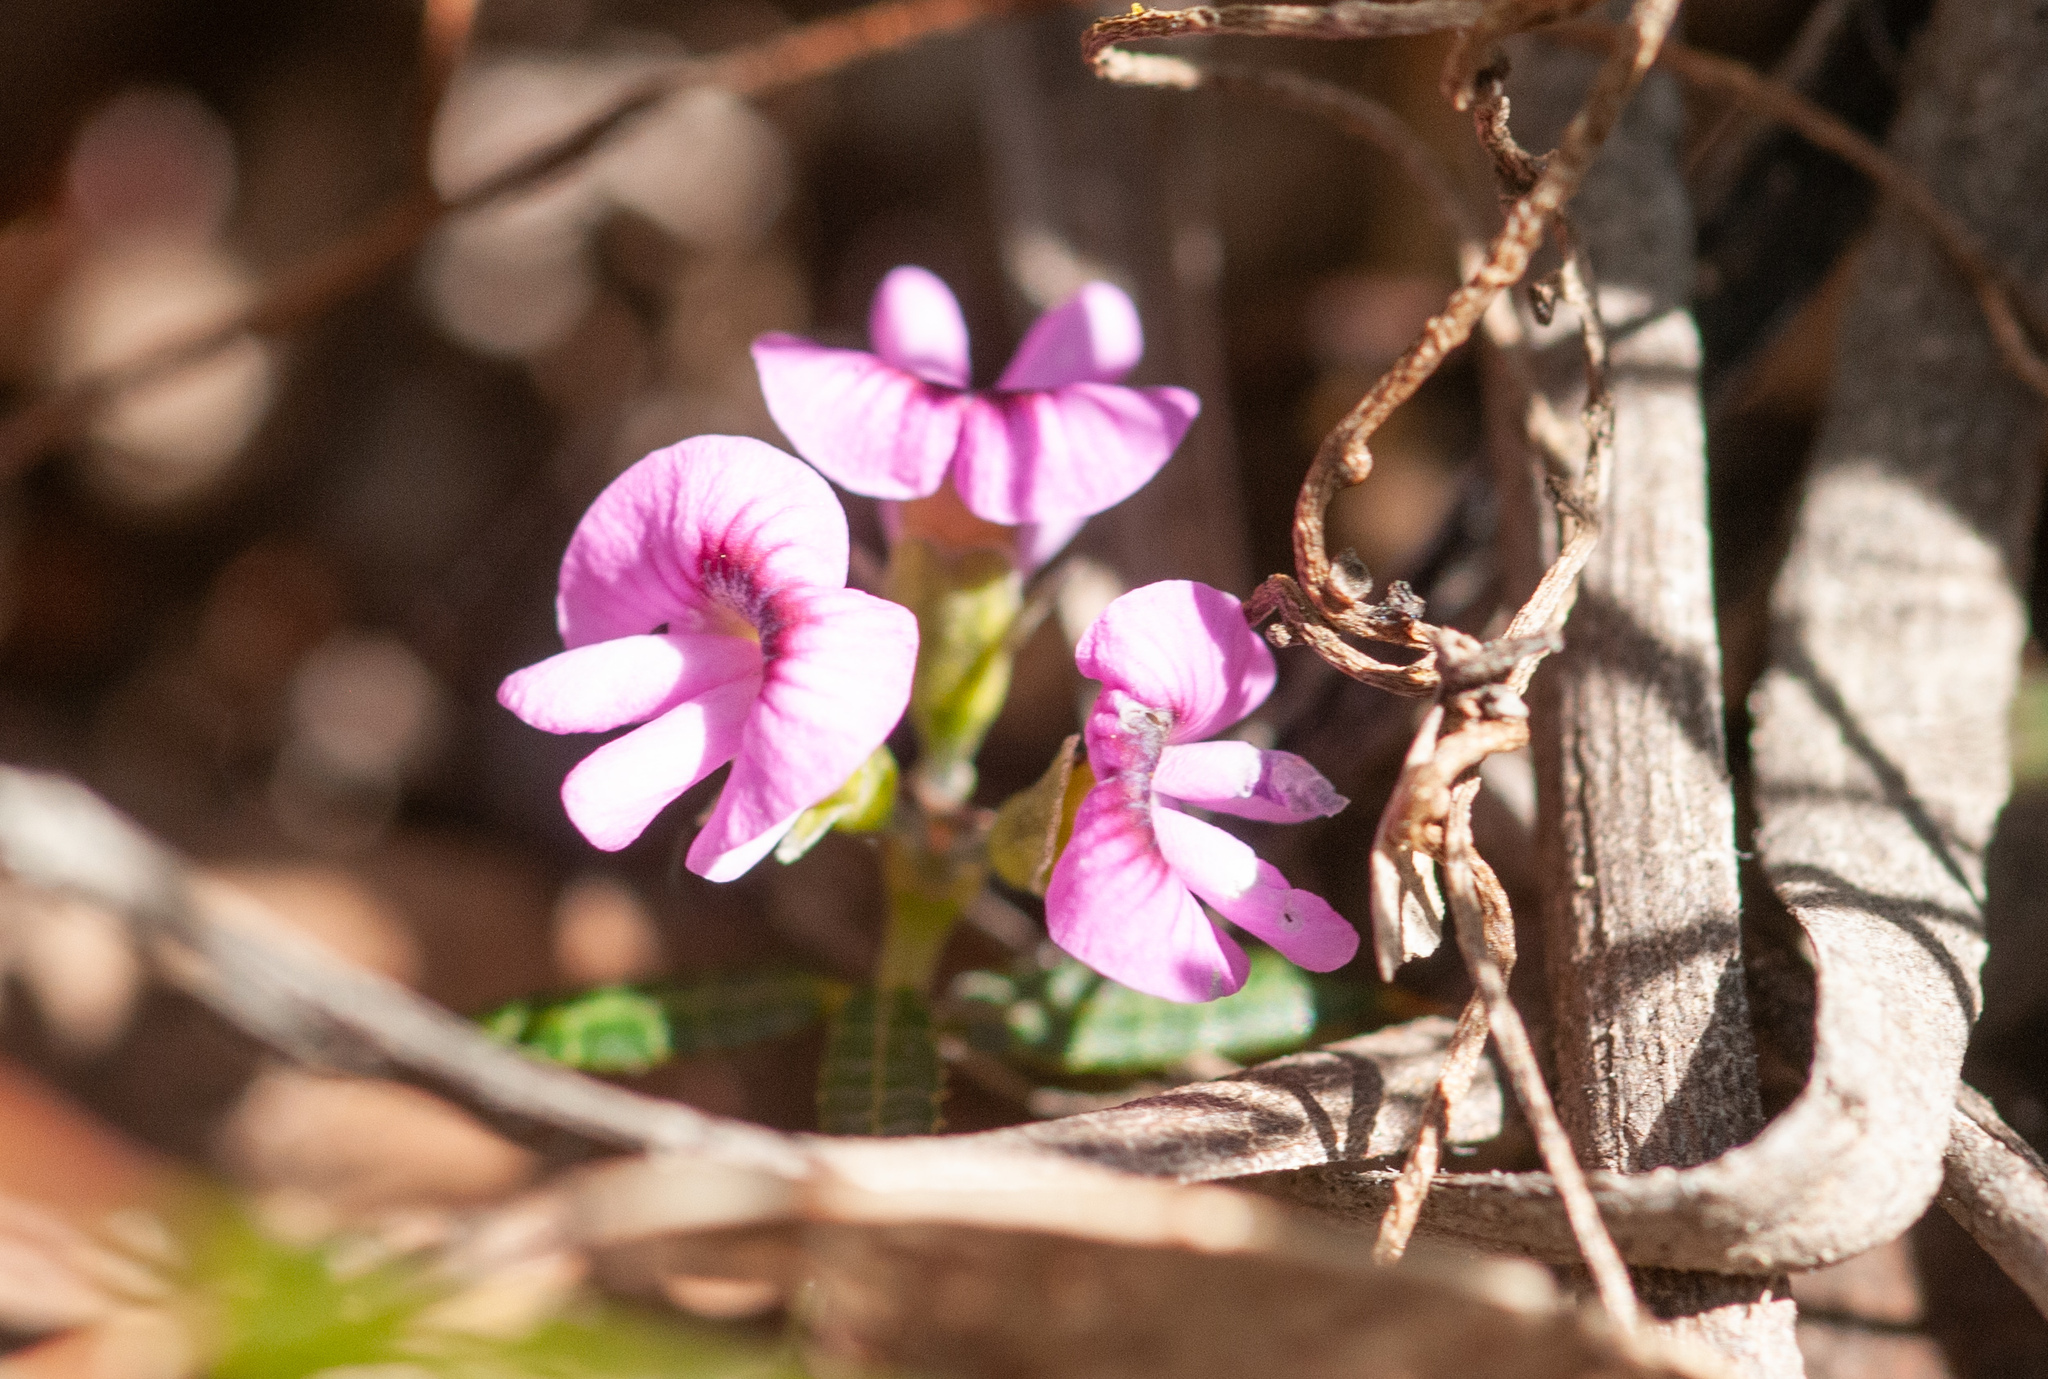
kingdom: Plantae
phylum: Tracheophyta
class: Magnoliopsida
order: Fabales
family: Fabaceae
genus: Mirbelia
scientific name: Mirbelia rubiifolia
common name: Heathy mirbelia
